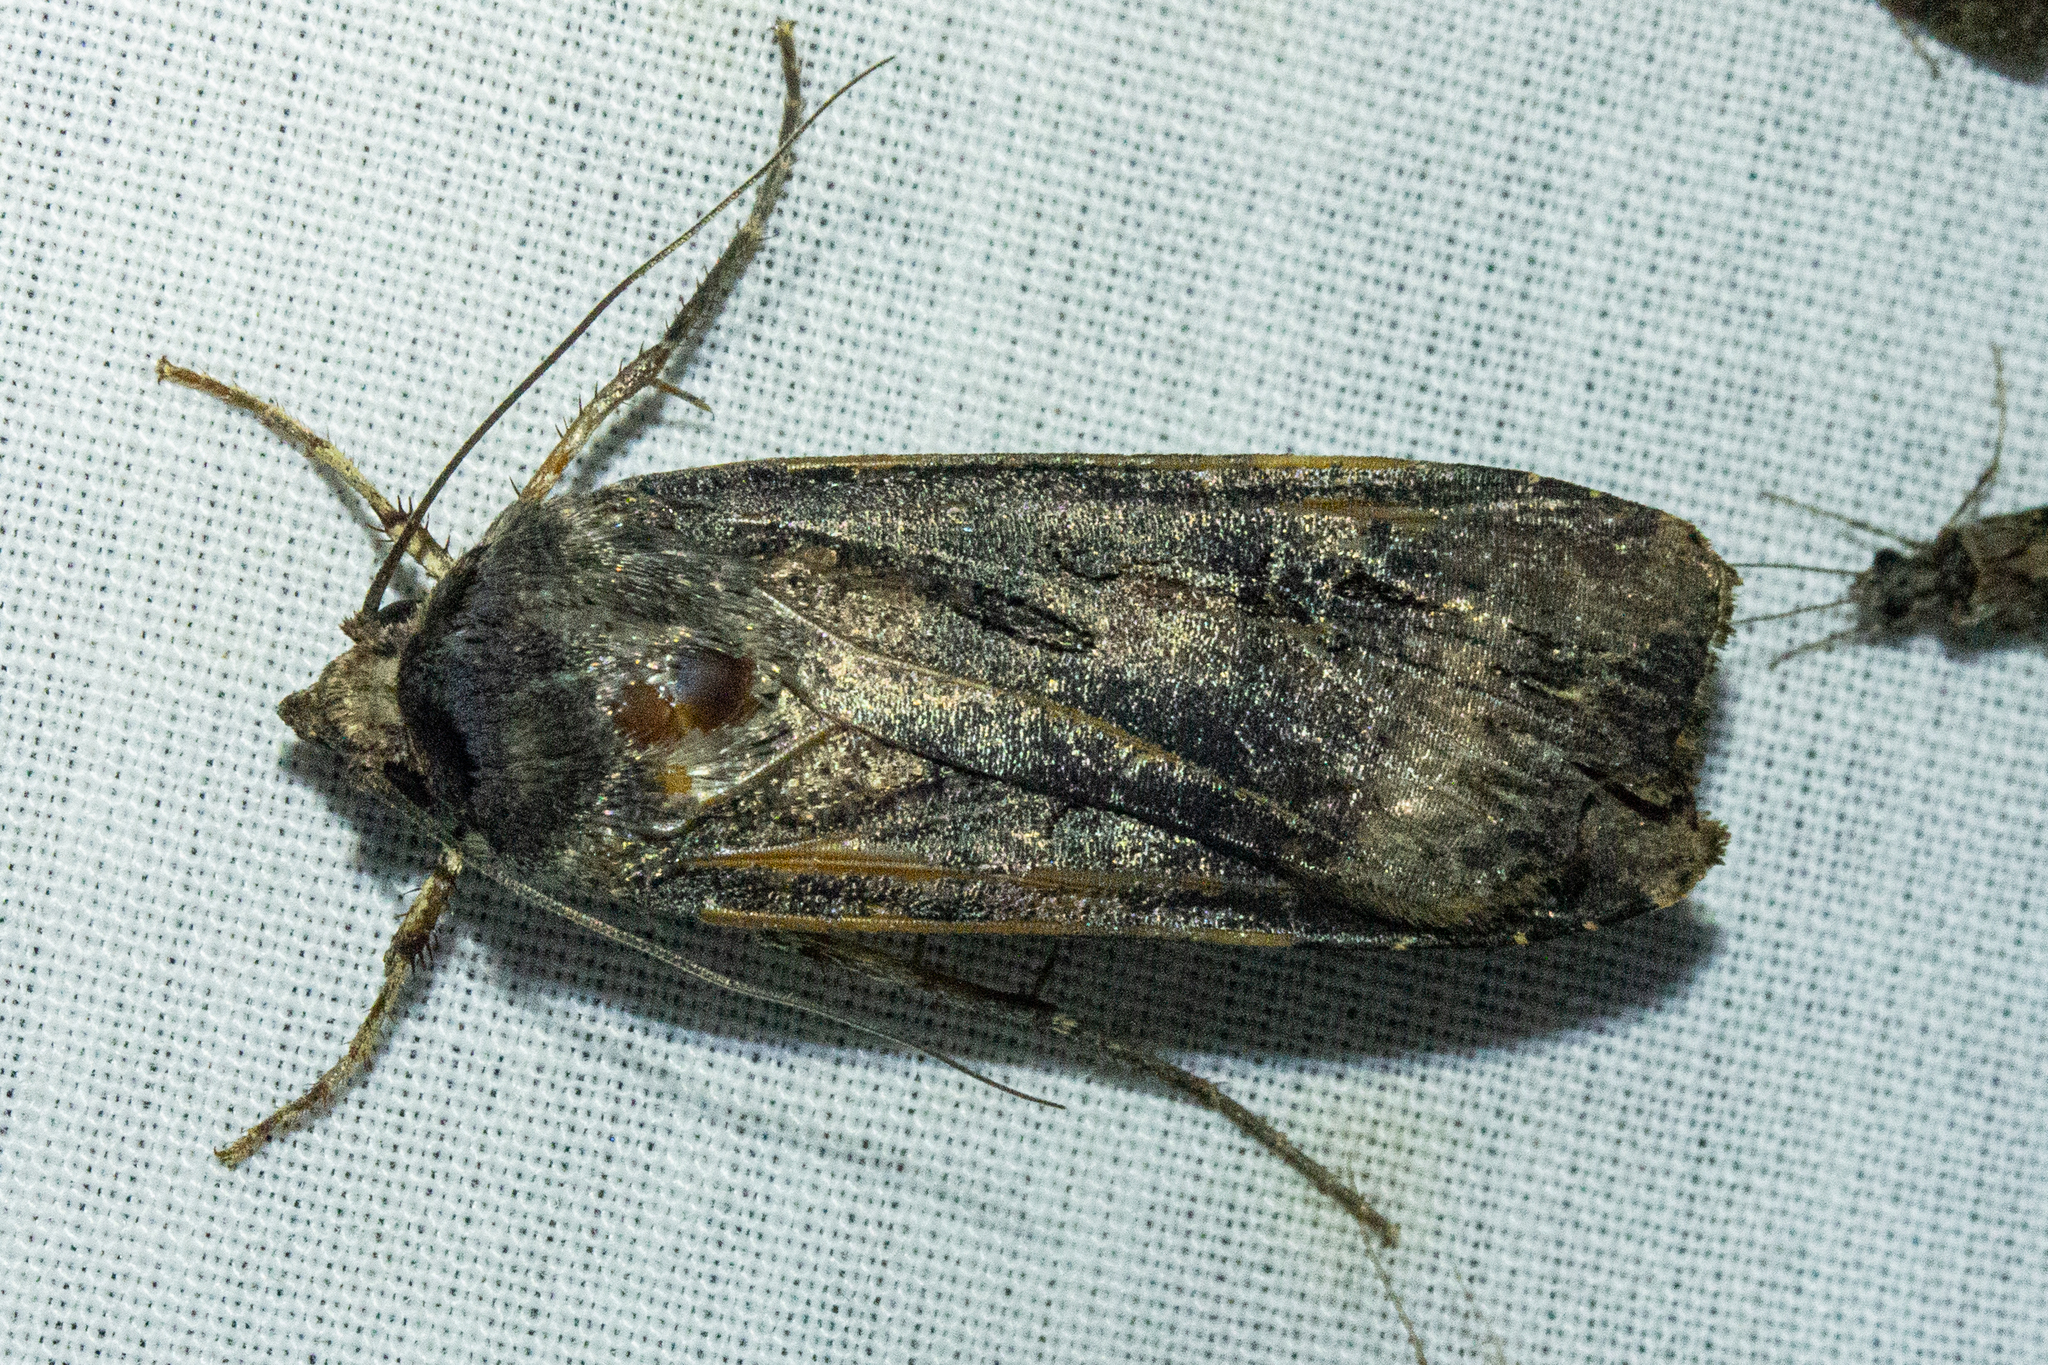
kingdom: Animalia
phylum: Arthropoda
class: Insecta
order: Lepidoptera
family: Noctuidae
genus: Agrotis
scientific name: Agrotis ipsilon
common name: Dark sword-grass
